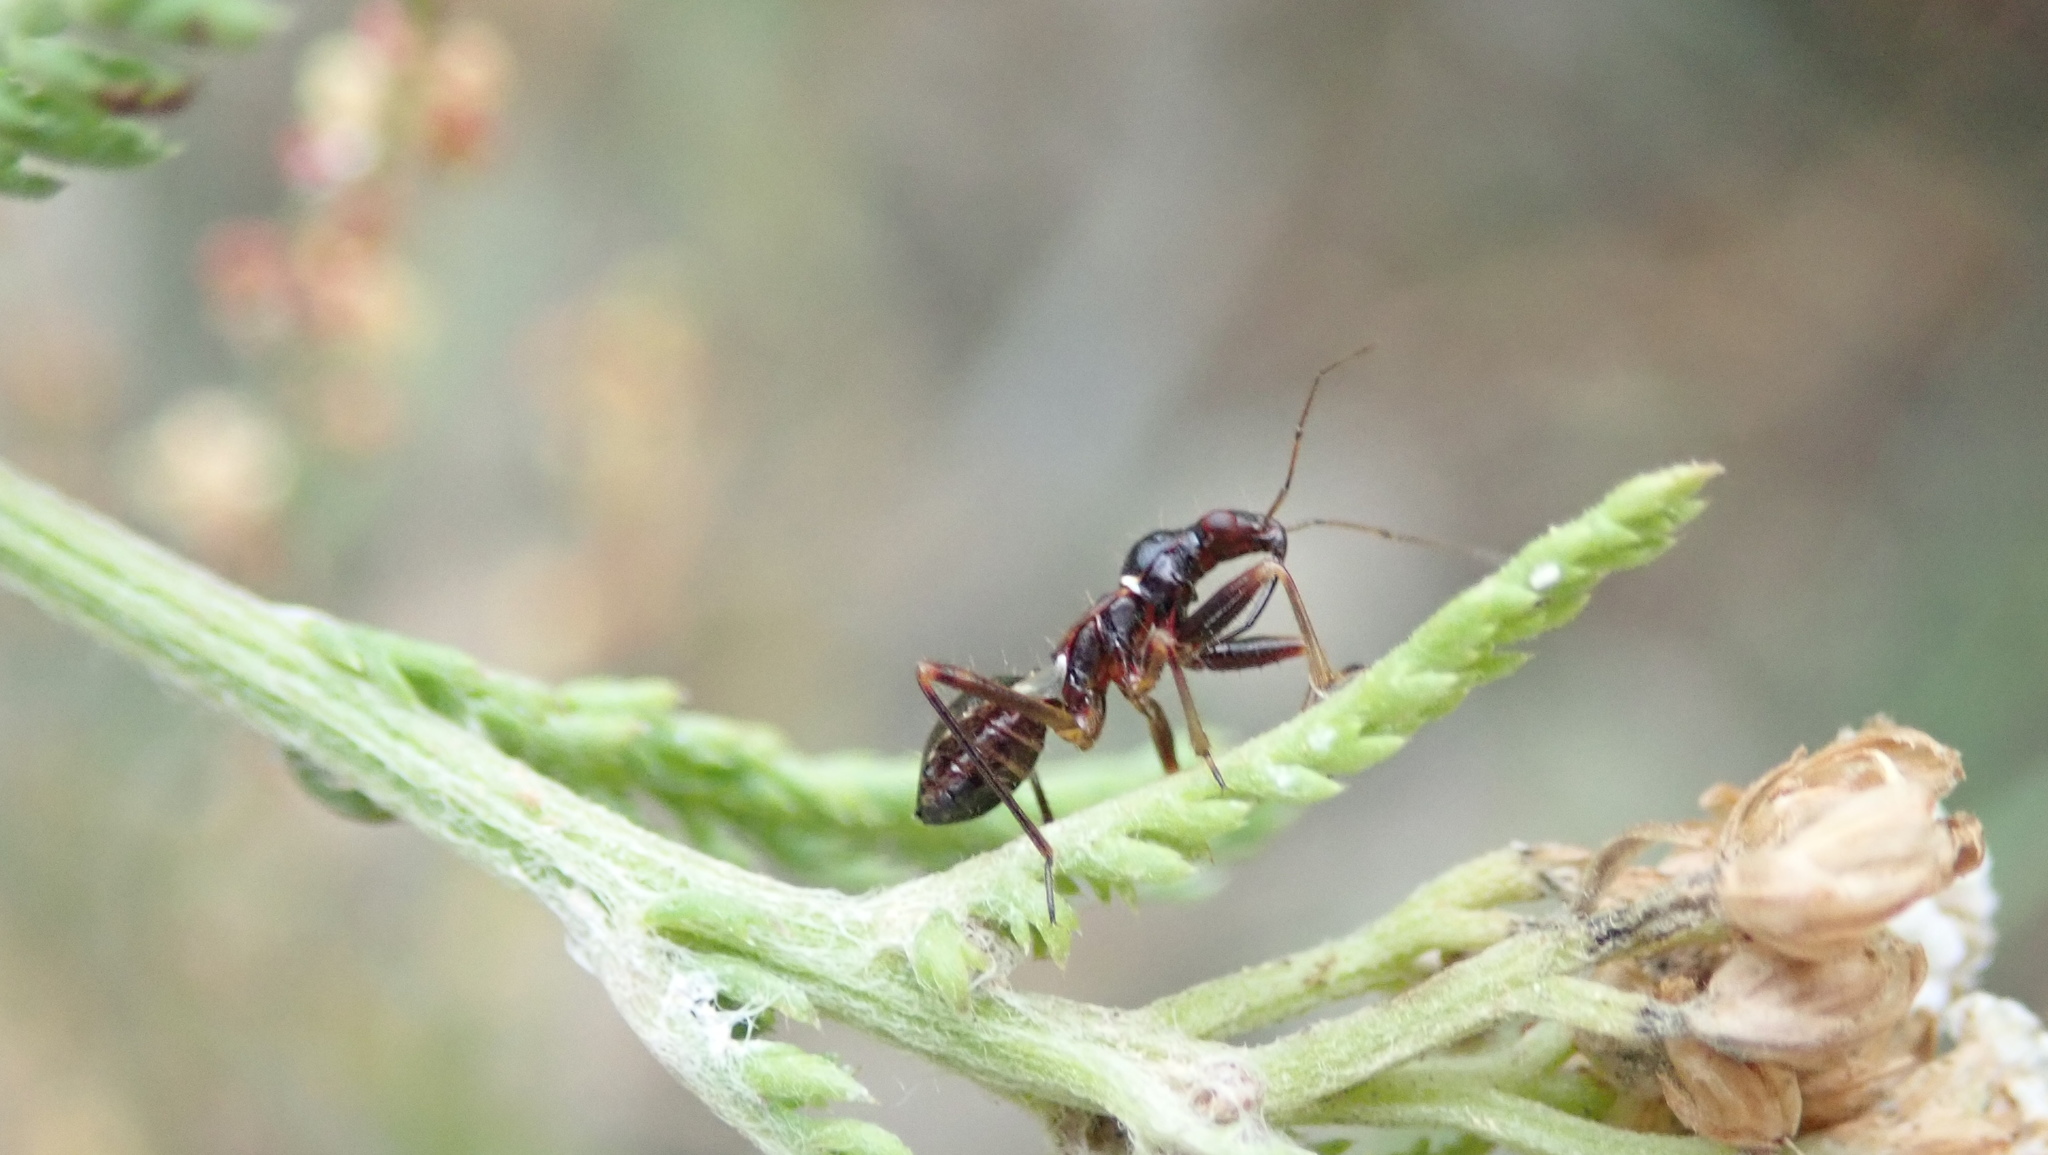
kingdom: Animalia
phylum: Arthropoda
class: Insecta
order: Hemiptera
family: Nabidae
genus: Himacerus
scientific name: Himacerus mirmicoides
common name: Ant damsel bug
